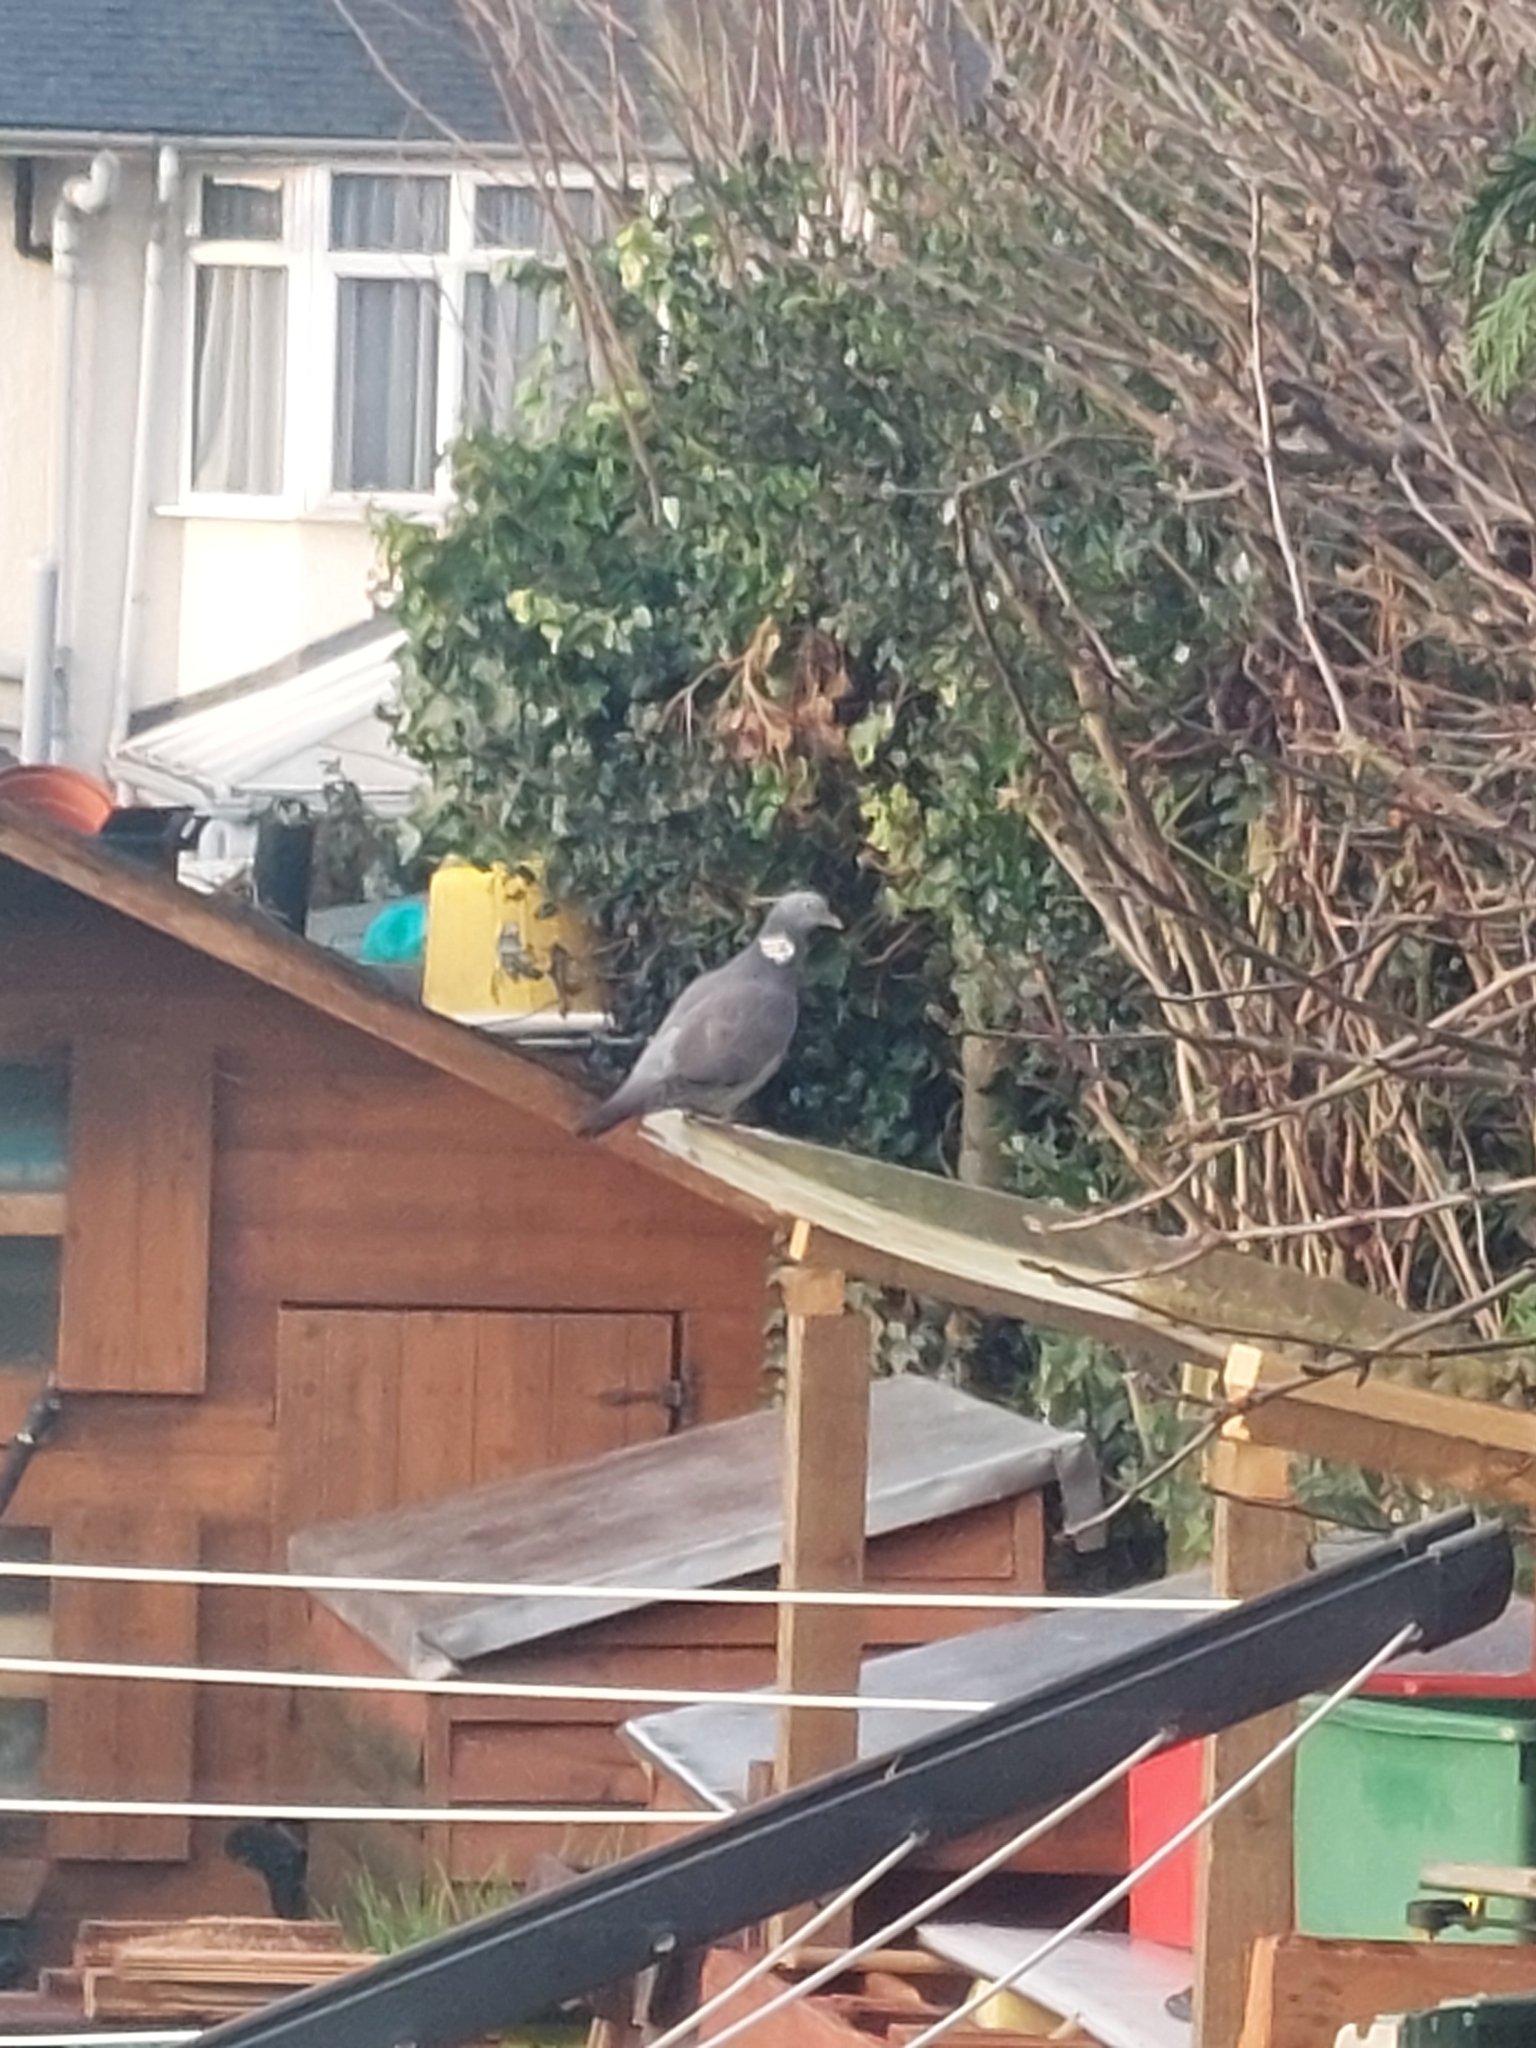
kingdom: Animalia
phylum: Chordata
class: Aves
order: Columbiformes
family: Columbidae
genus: Columba
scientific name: Columba palumbus
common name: Common wood pigeon
